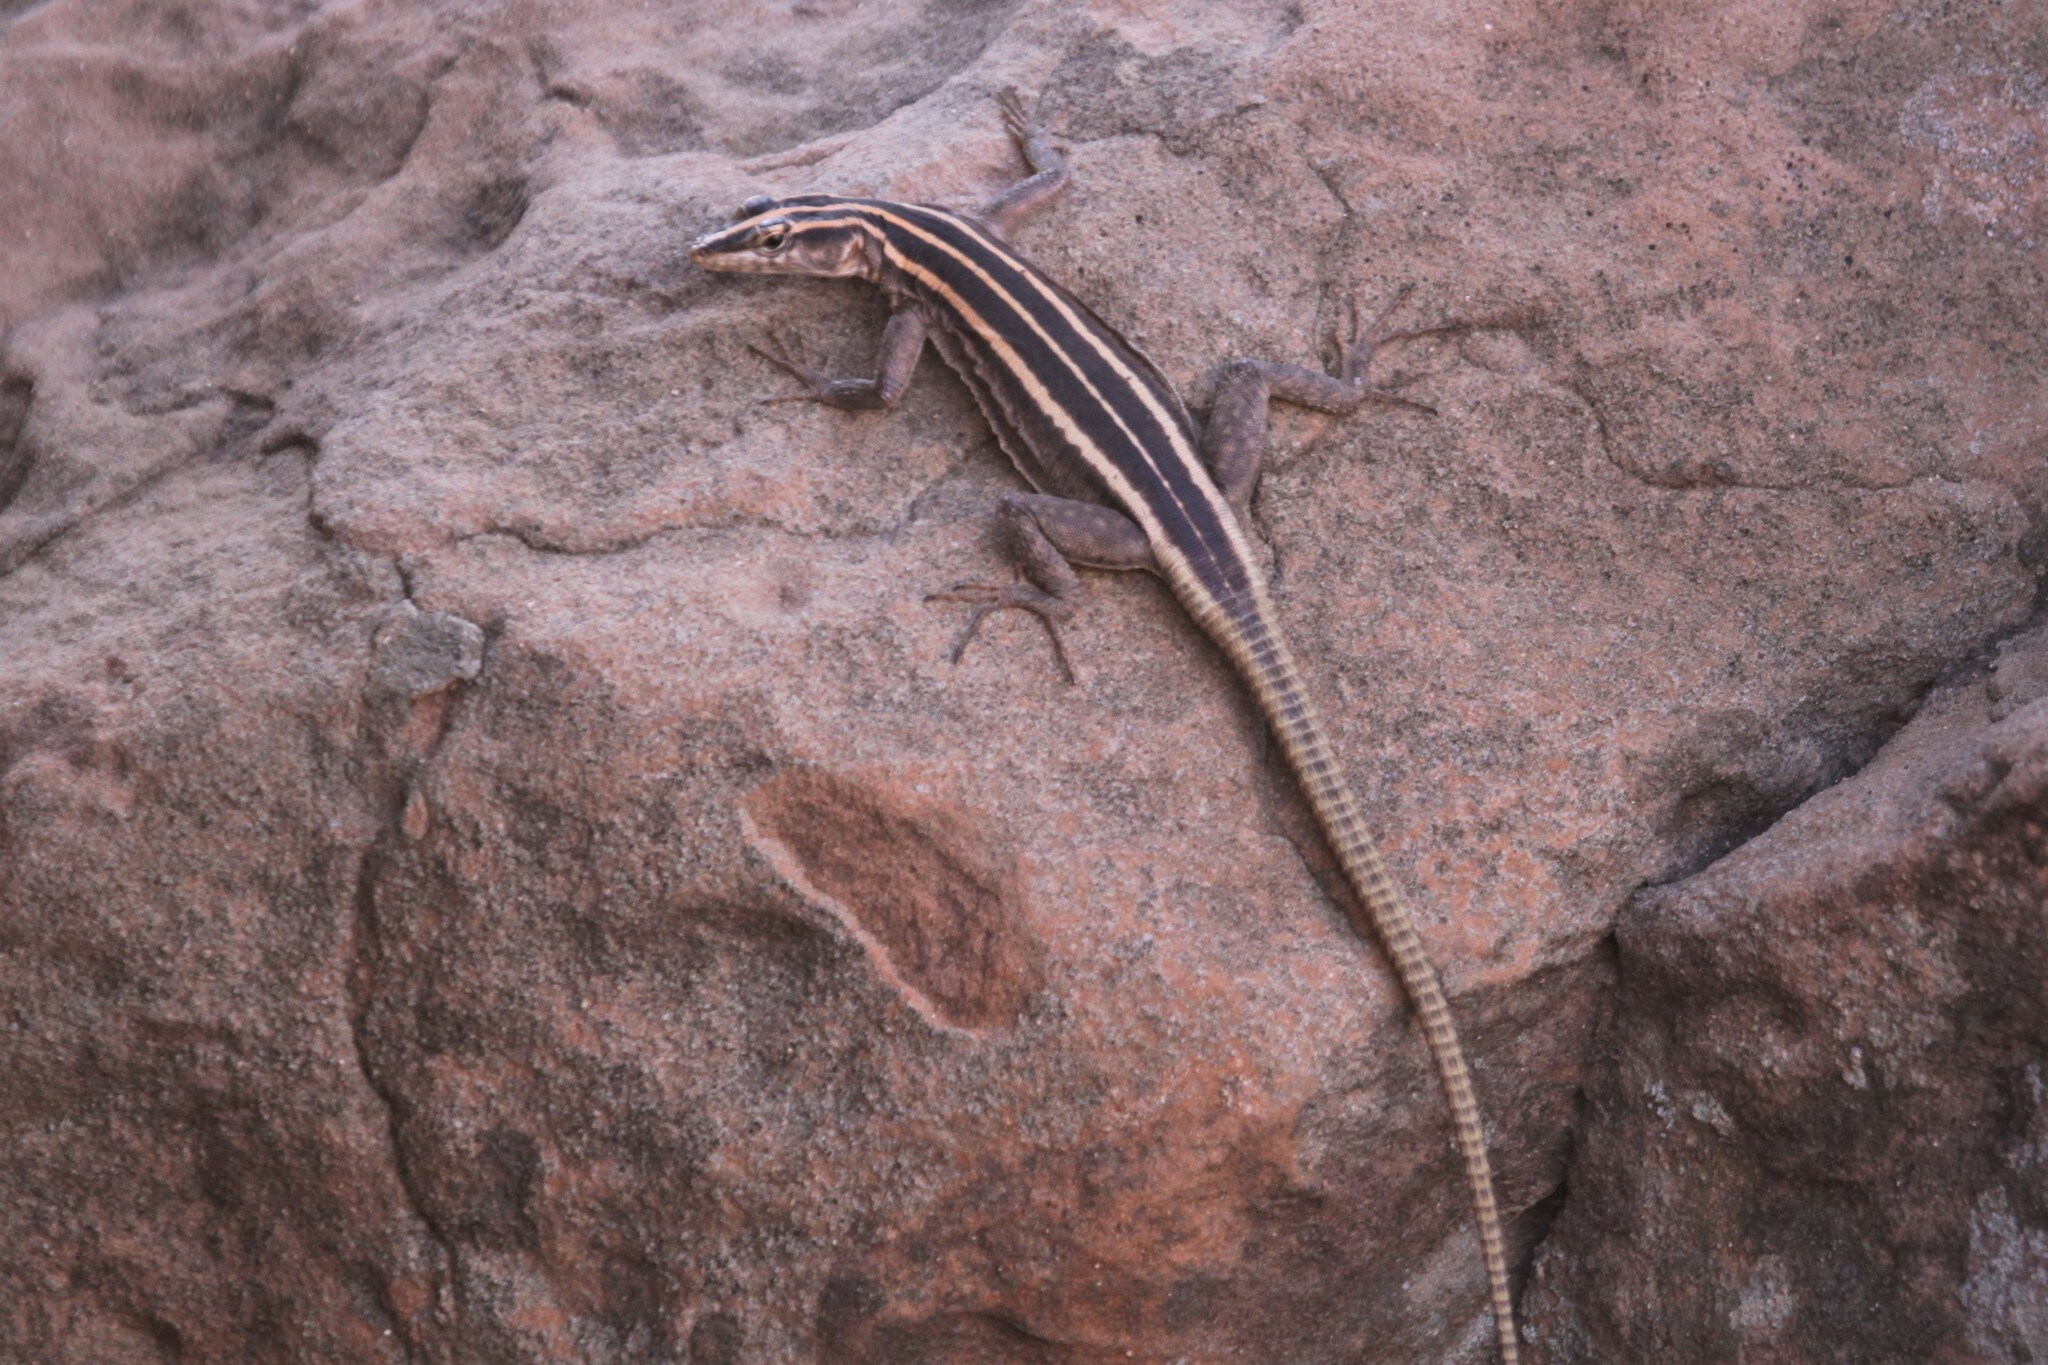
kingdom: Animalia
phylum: Chordata
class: Squamata
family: Cordylidae
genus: Platysaurus
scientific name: Platysaurus intermedius
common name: Common flat lizard
